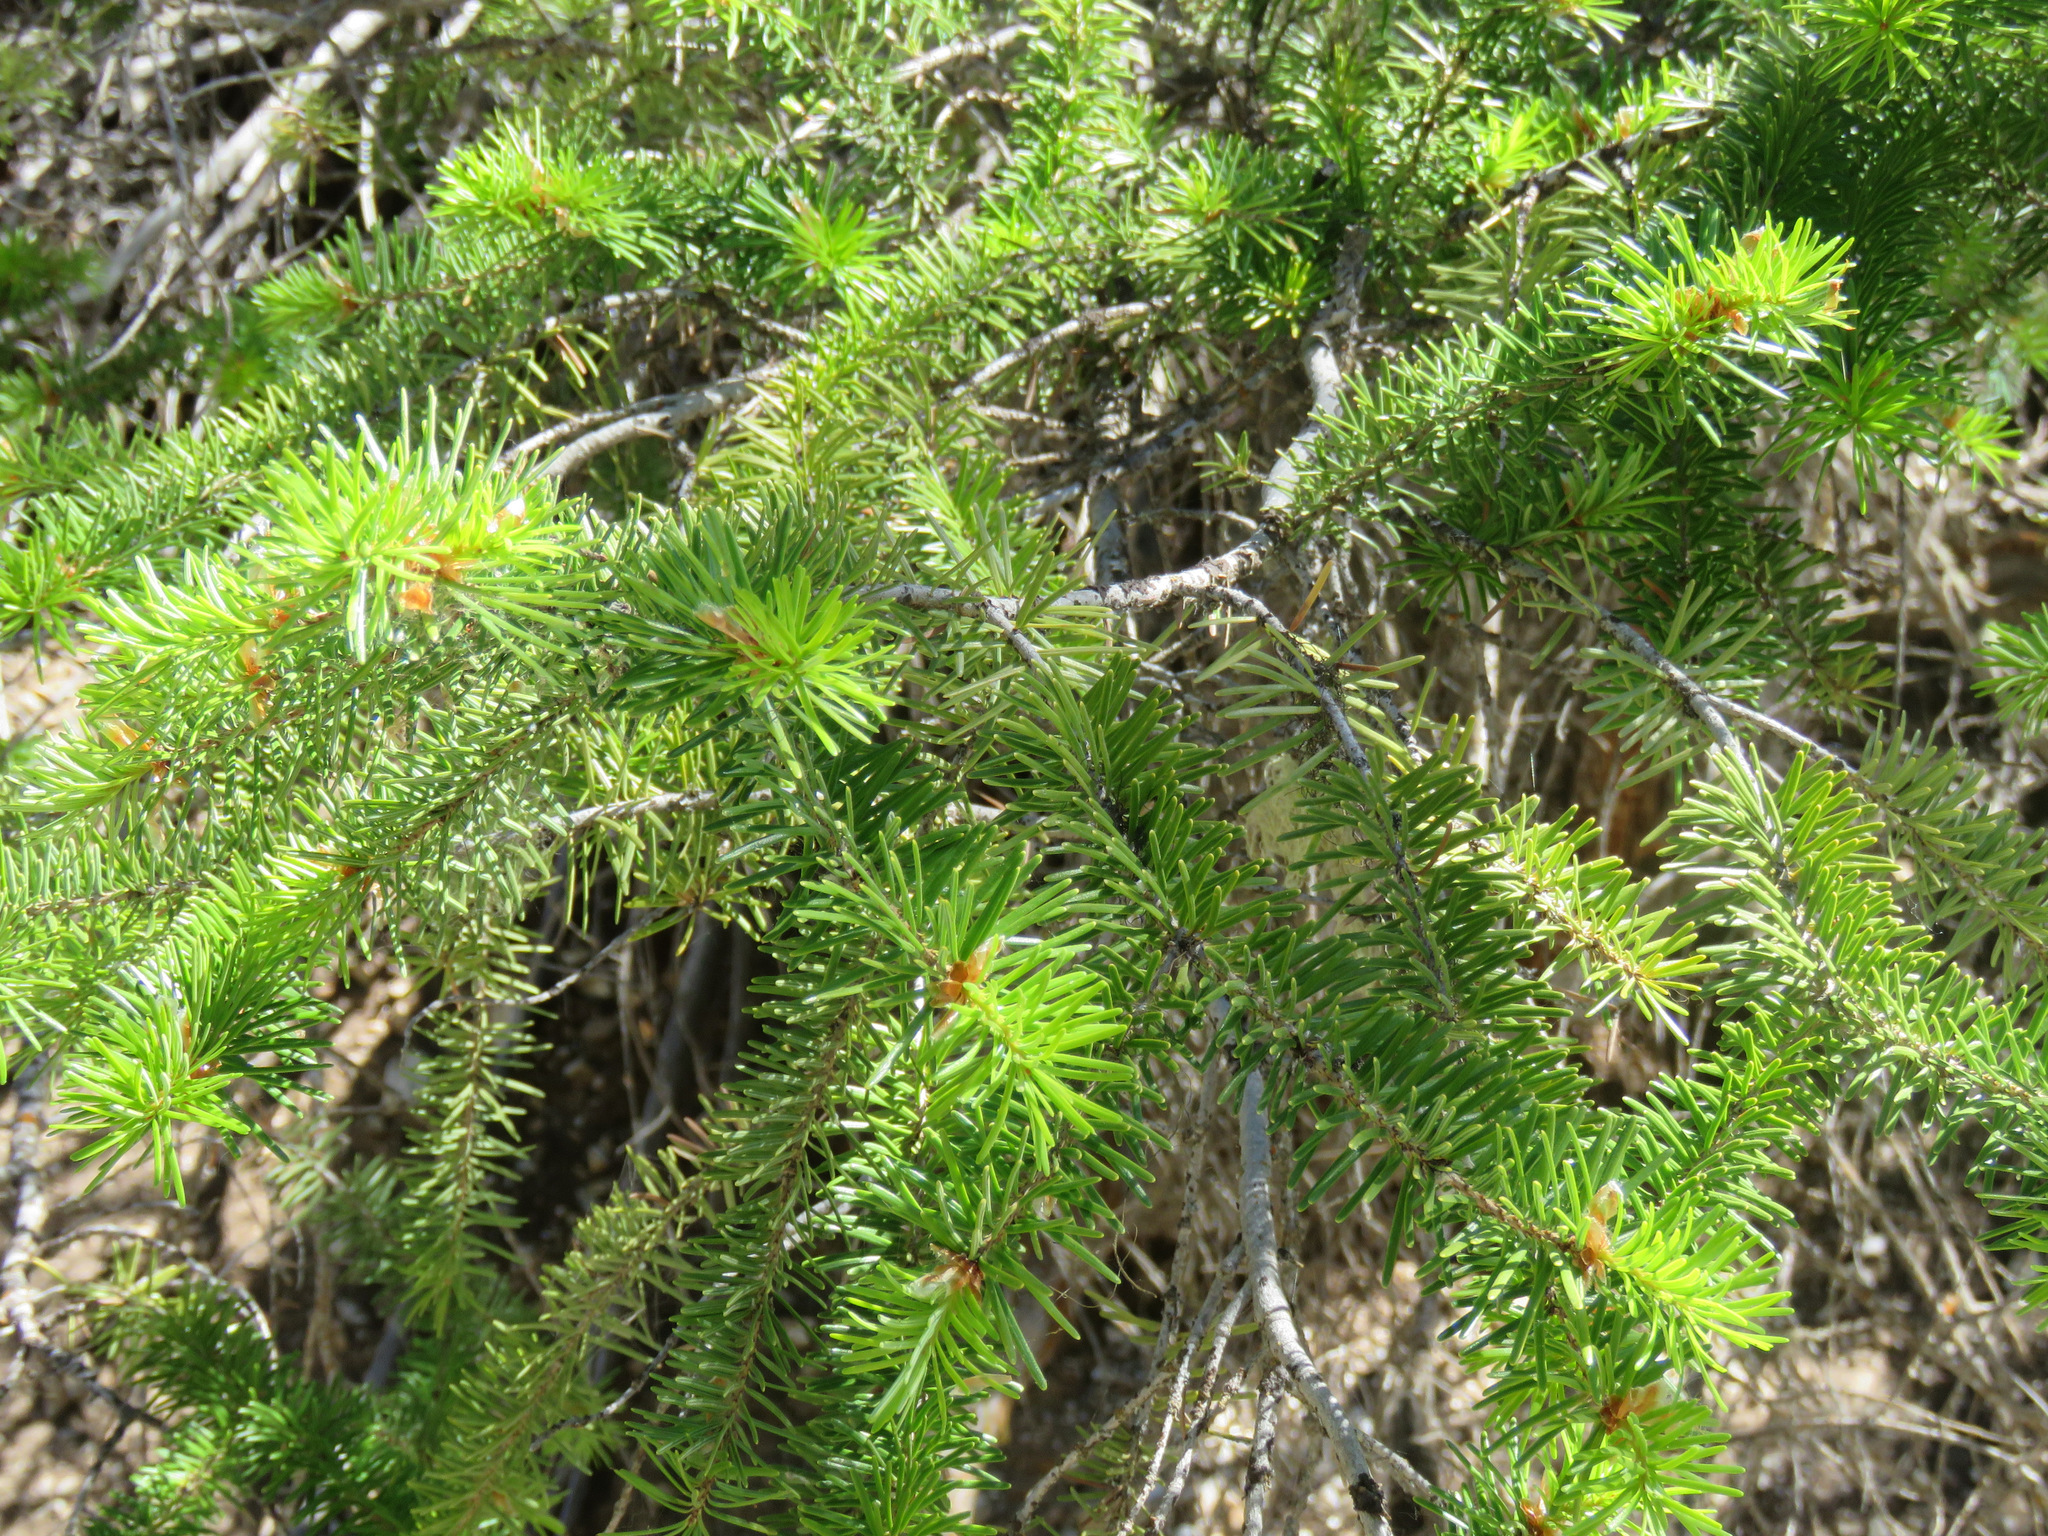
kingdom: Plantae
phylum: Tracheophyta
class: Pinopsida
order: Pinales
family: Pinaceae
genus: Pseudotsuga
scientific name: Pseudotsuga menziesii
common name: Douglas fir
